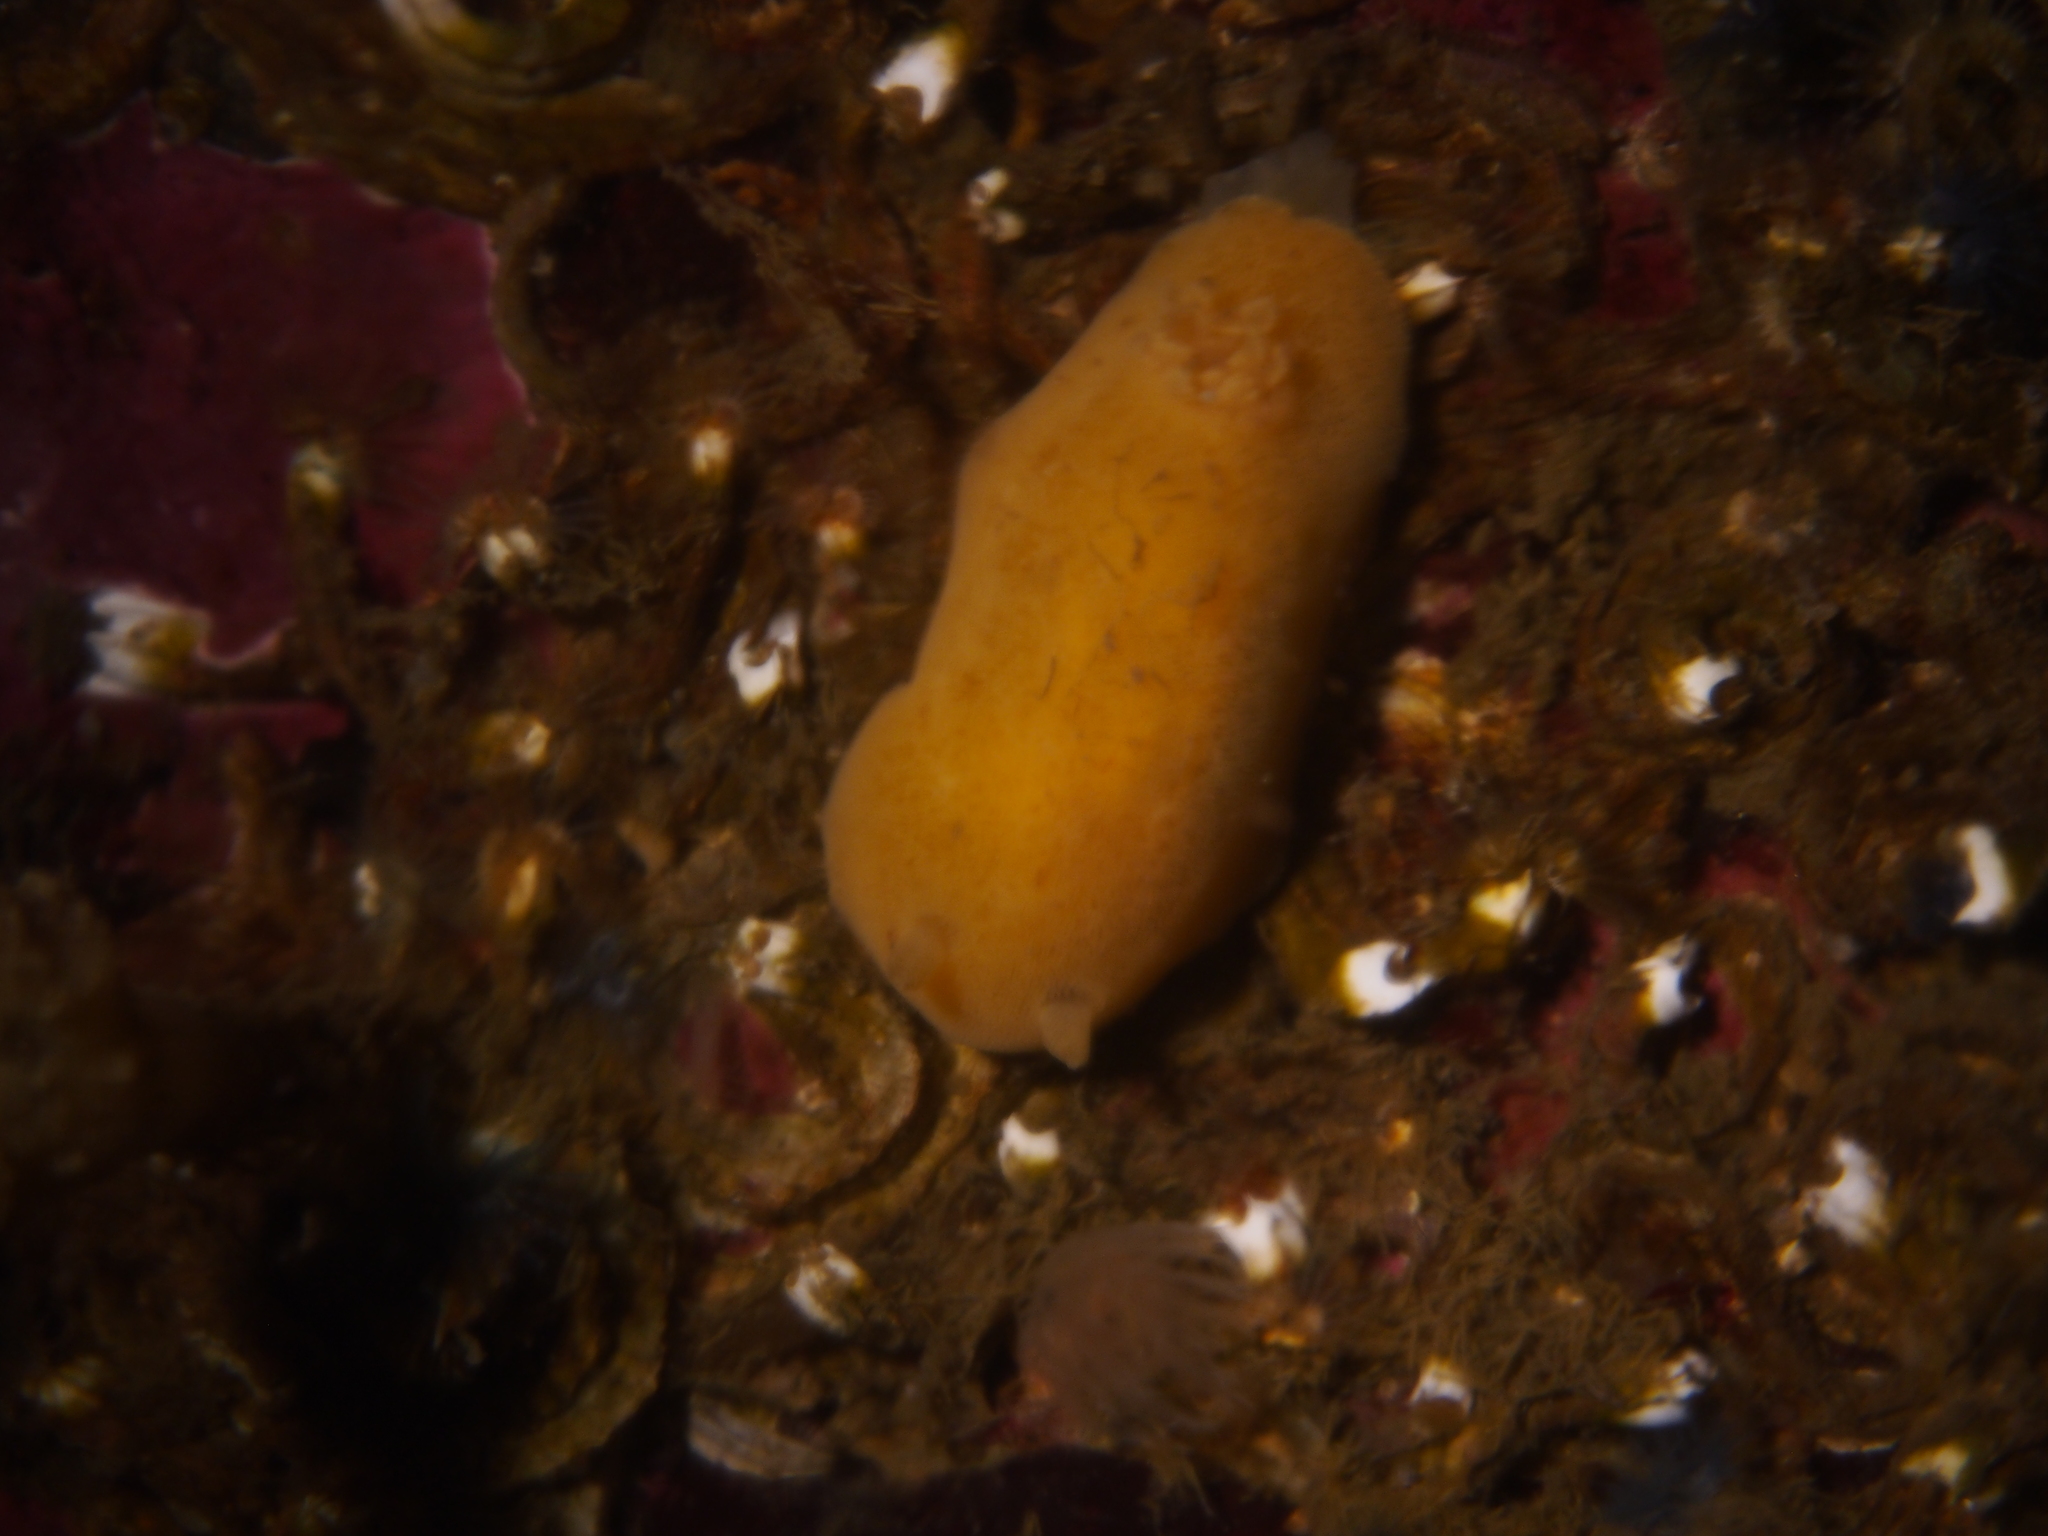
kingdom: Animalia
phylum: Mollusca
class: Gastropoda
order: Nudibranchia
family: Discodorididae
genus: Jorunna
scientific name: Jorunna tomentosa
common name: Grey sea slug
